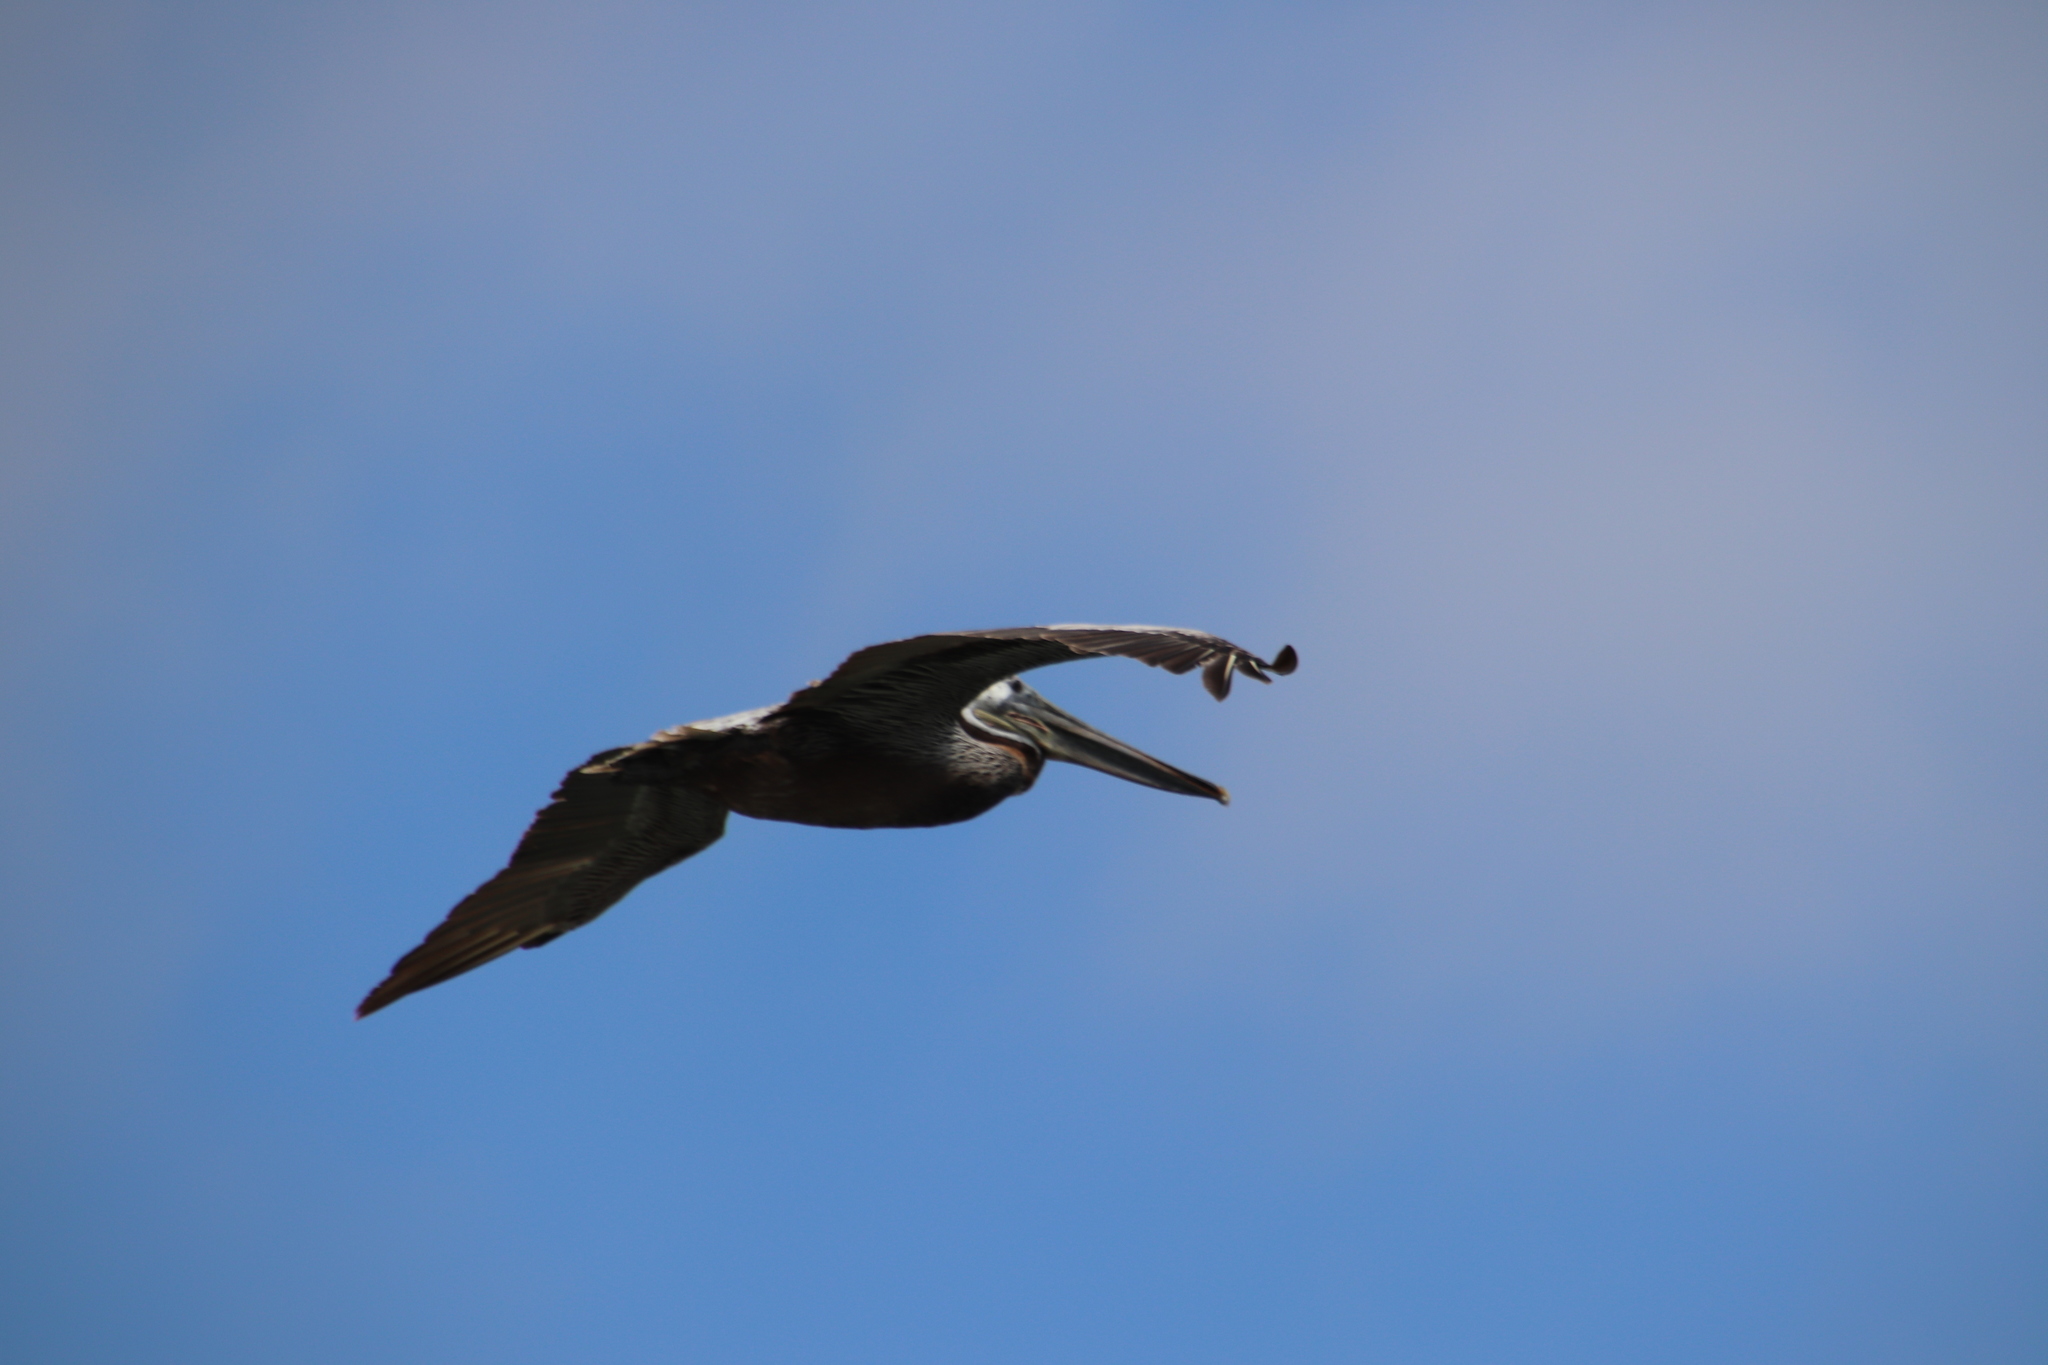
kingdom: Animalia
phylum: Chordata
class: Aves
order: Pelecaniformes
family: Pelecanidae
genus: Pelecanus
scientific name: Pelecanus occidentalis
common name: Brown pelican
